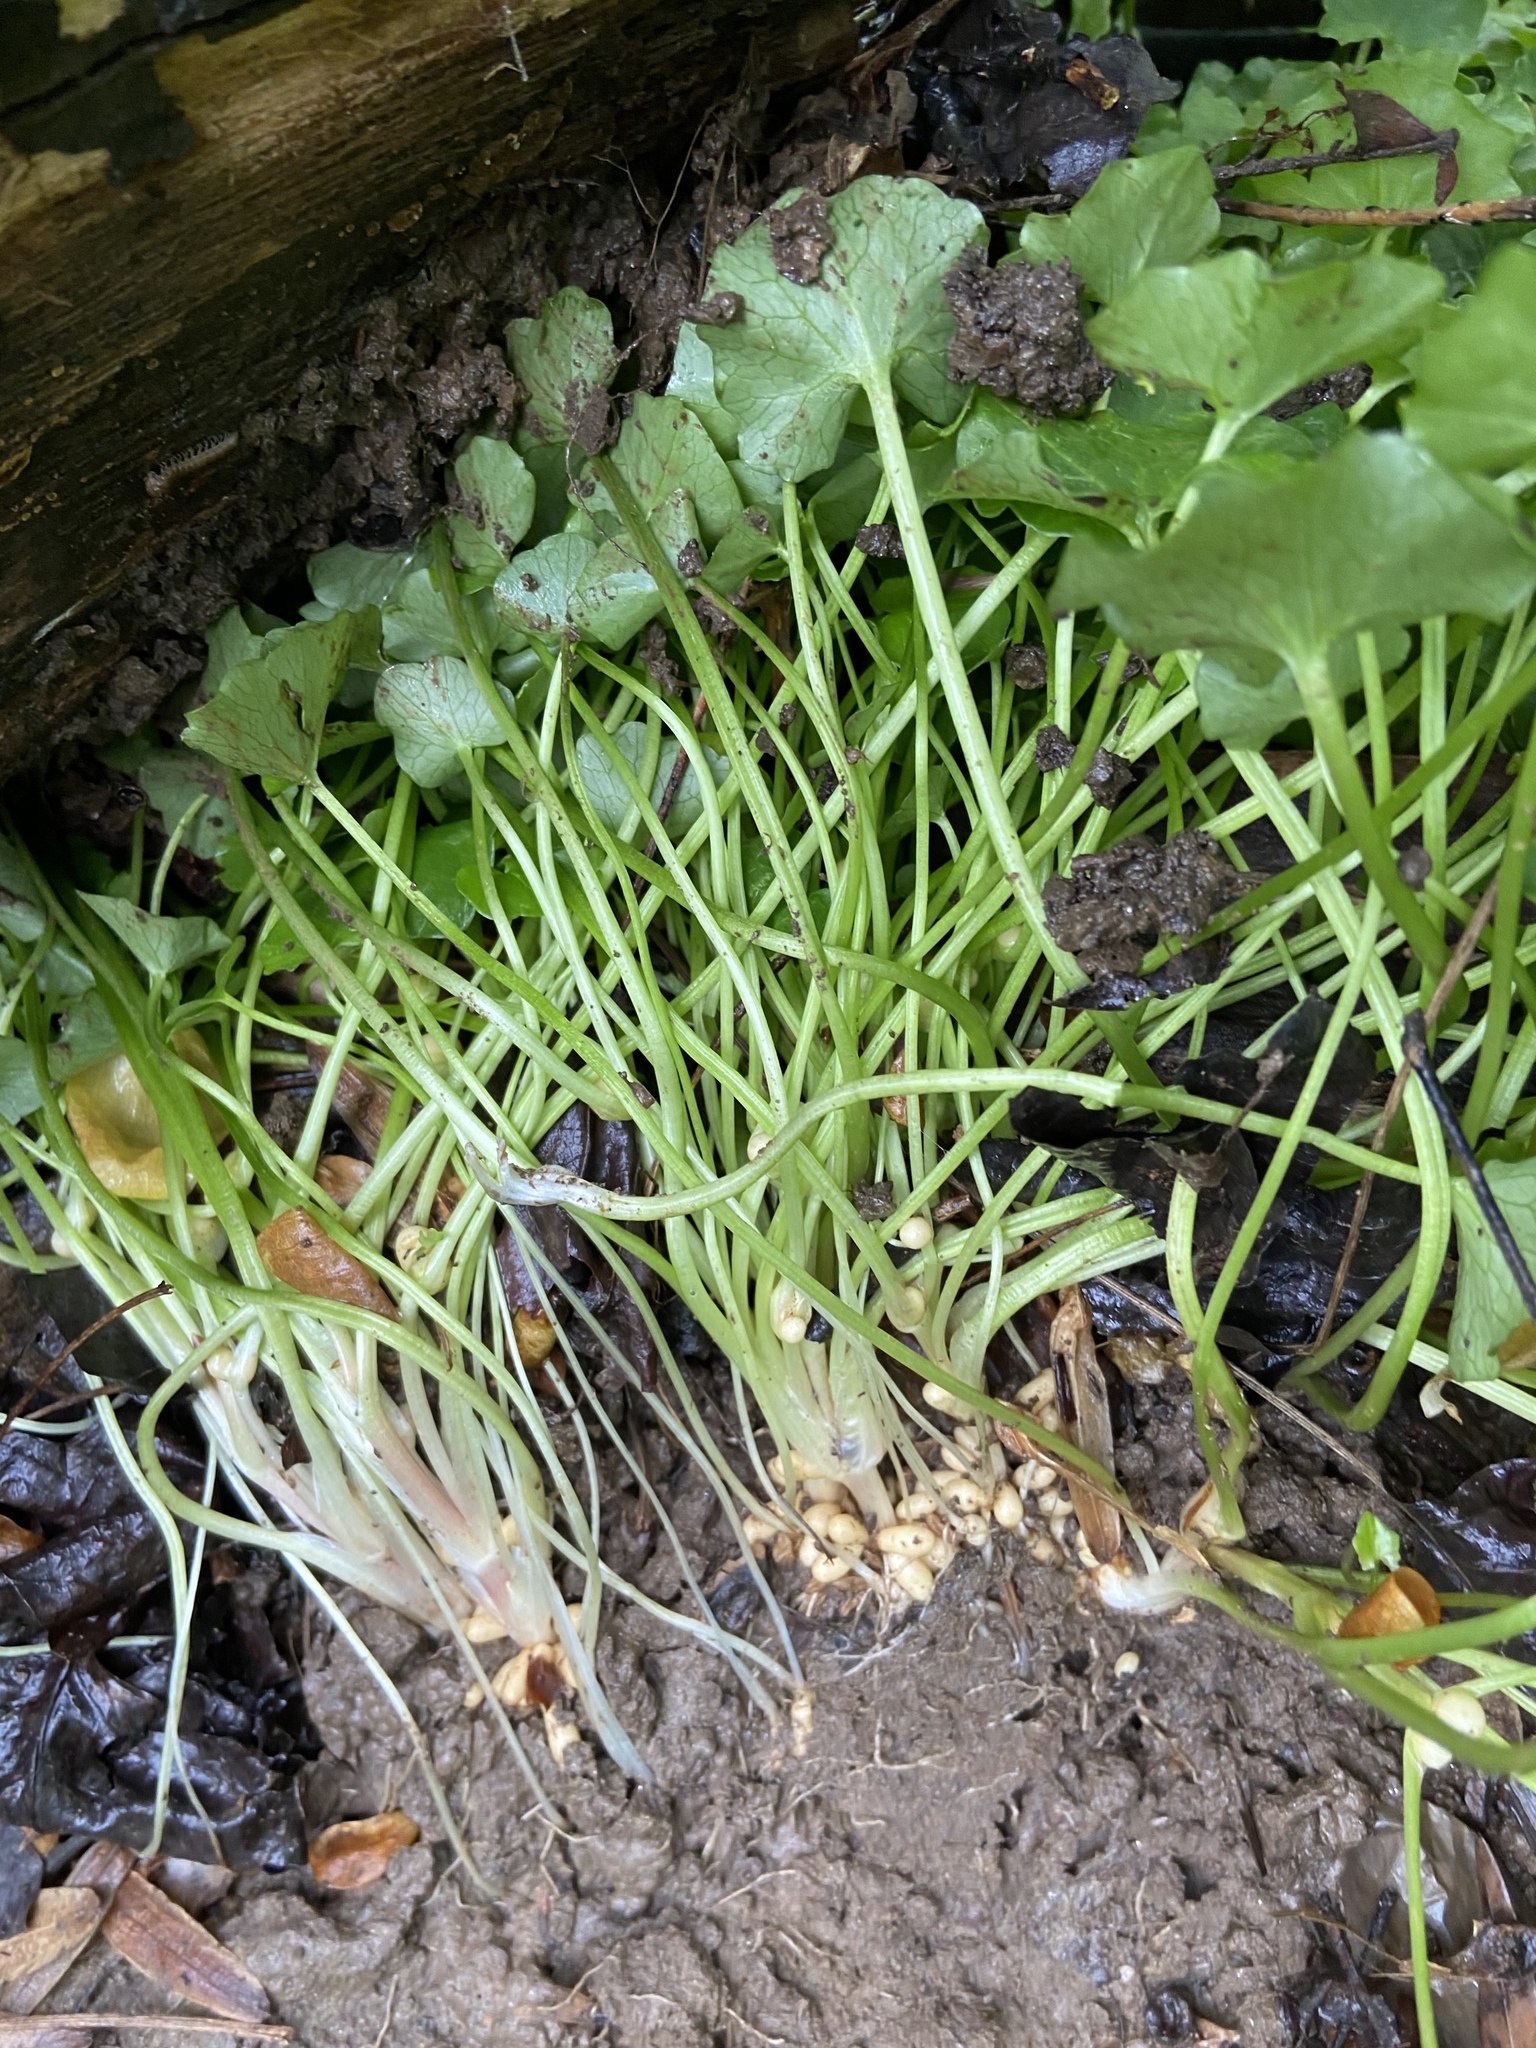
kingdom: Plantae
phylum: Tracheophyta
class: Magnoliopsida
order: Ranunculales
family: Ranunculaceae
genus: Ficaria
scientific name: Ficaria verna
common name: Lesser celandine
